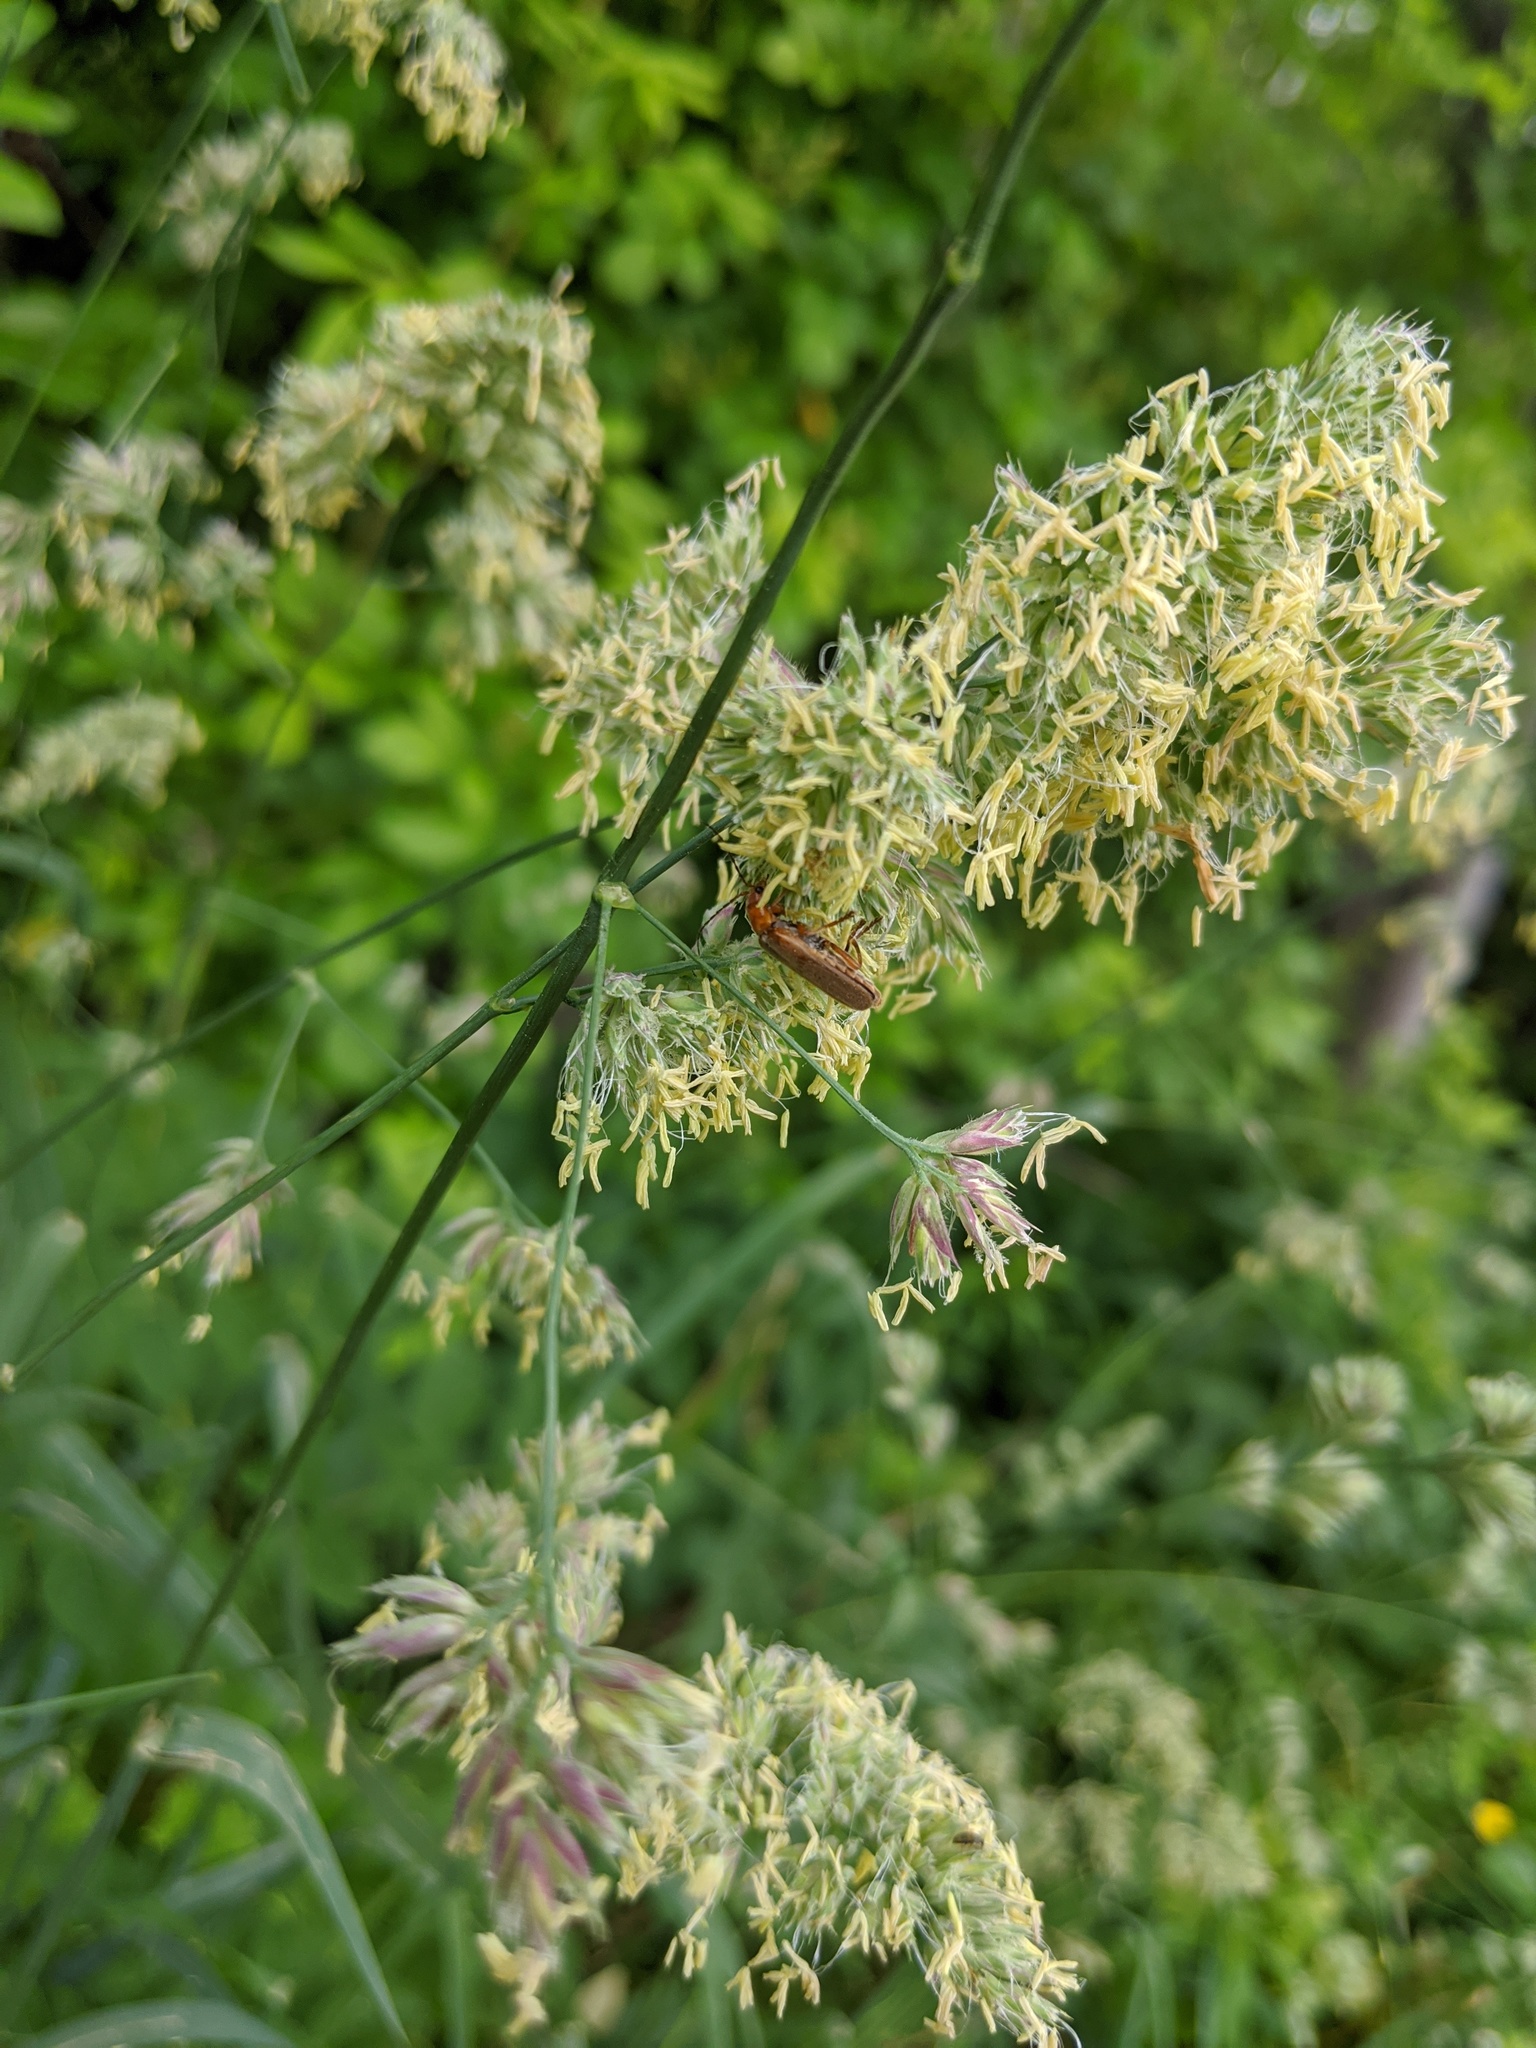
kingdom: Plantae
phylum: Tracheophyta
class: Liliopsida
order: Poales
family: Poaceae
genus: Dactylis
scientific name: Dactylis glomerata
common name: Orchardgrass
